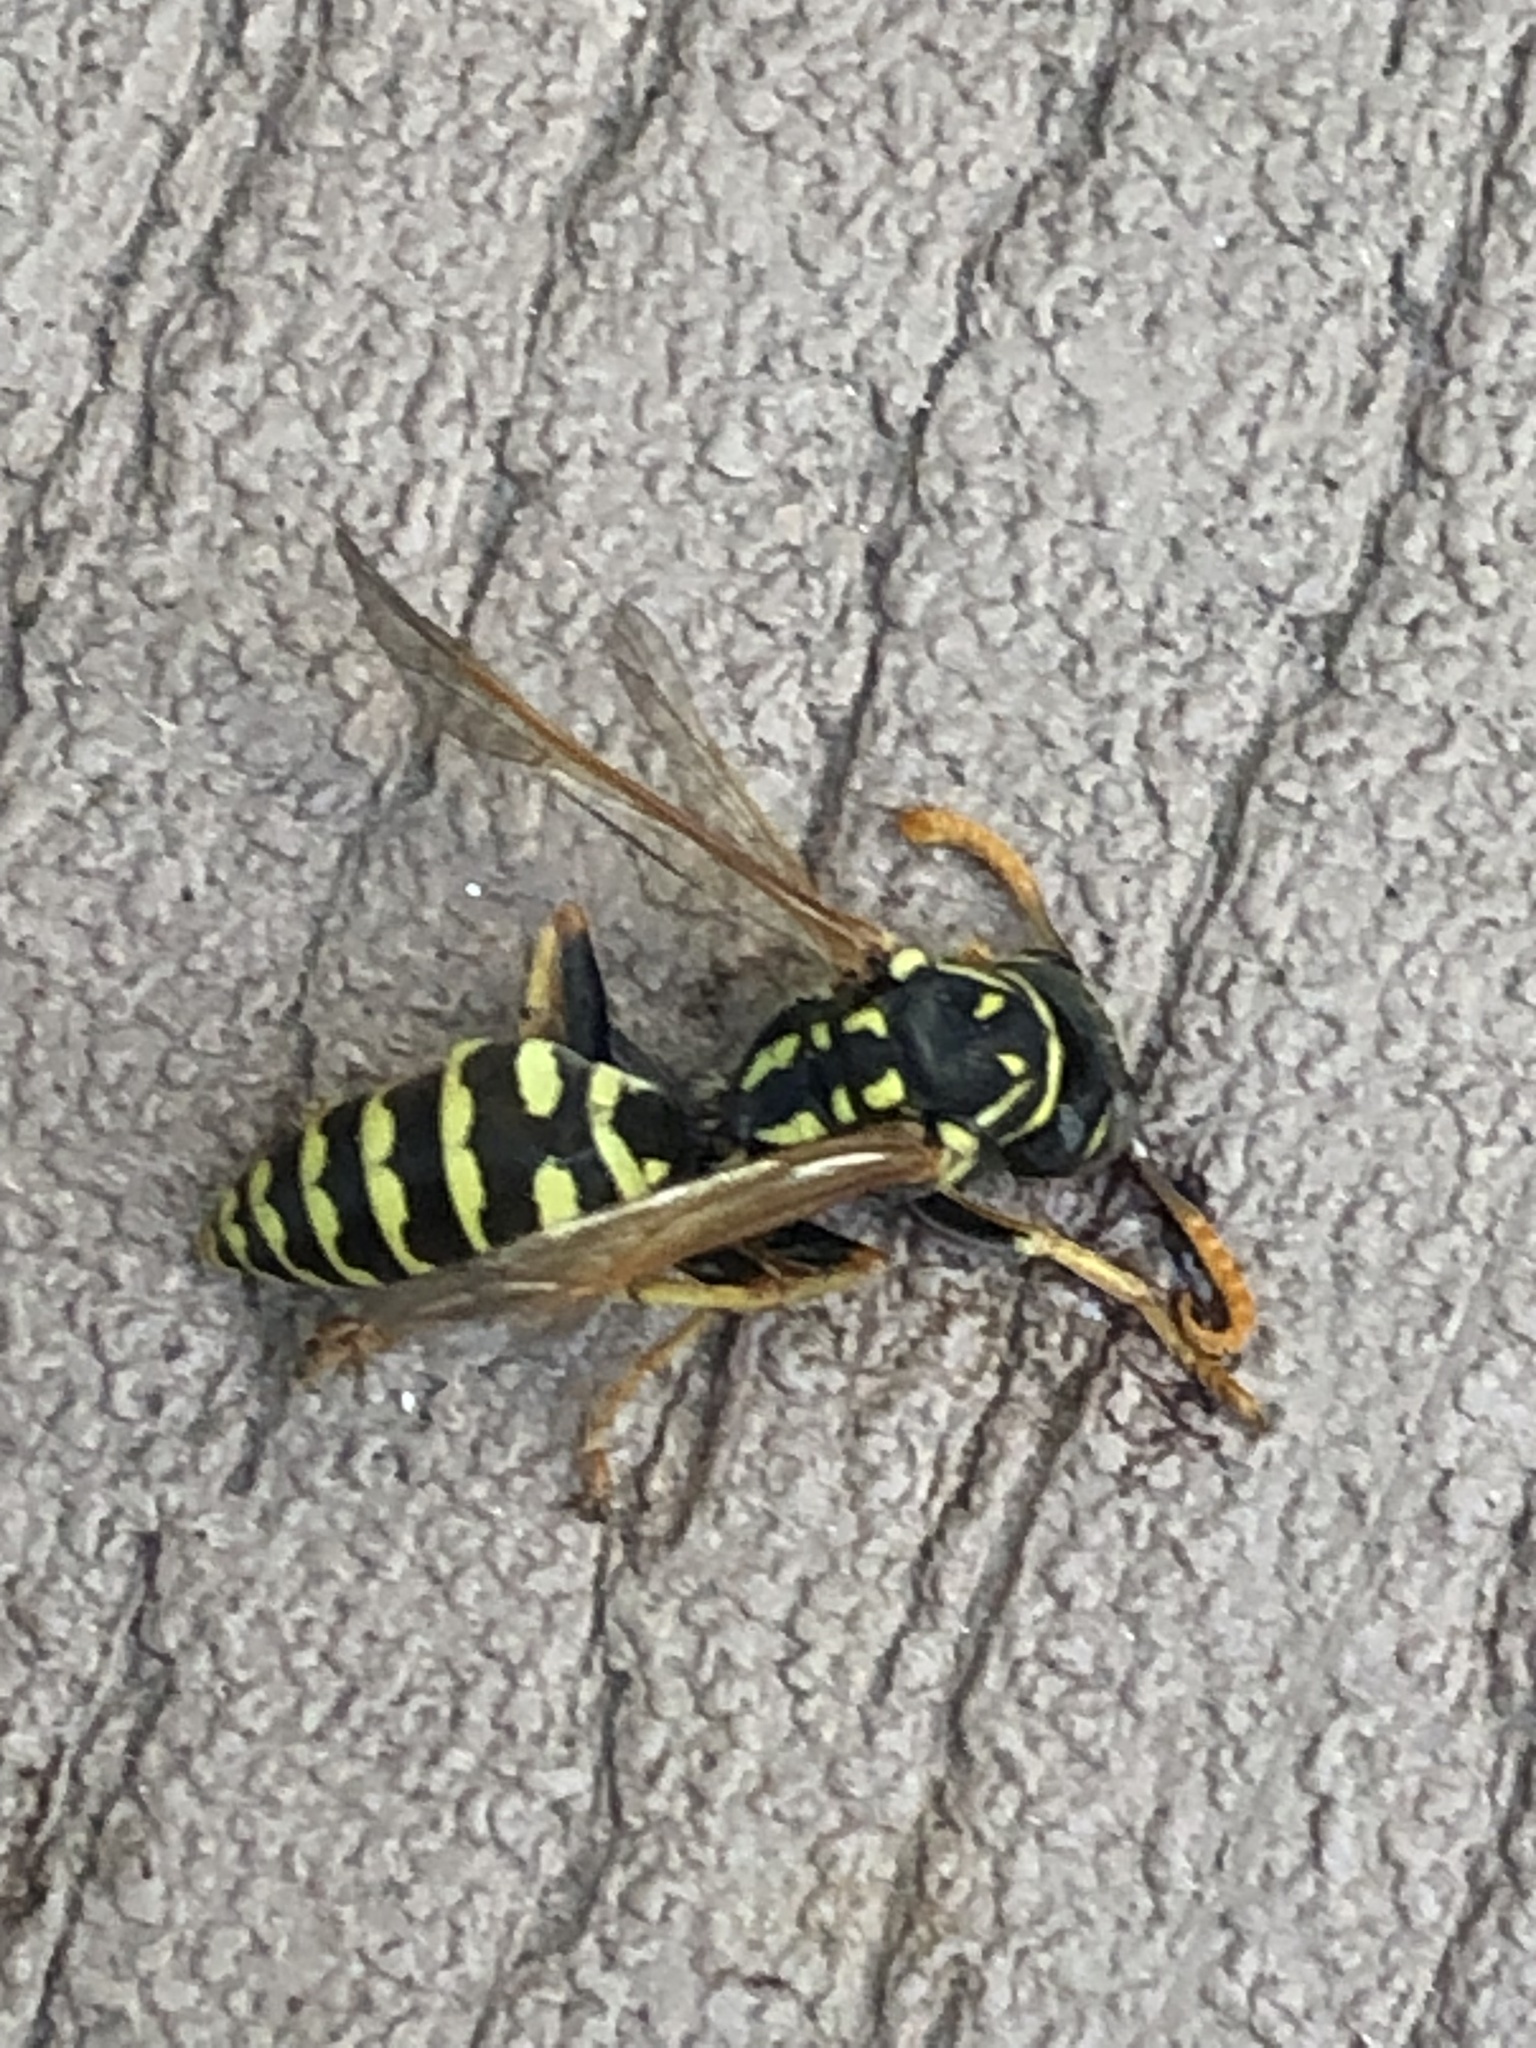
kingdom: Animalia
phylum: Arthropoda
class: Insecta
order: Hymenoptera
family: Eumenidae
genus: Polistes
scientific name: Polistes dominula
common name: Paper wasp
